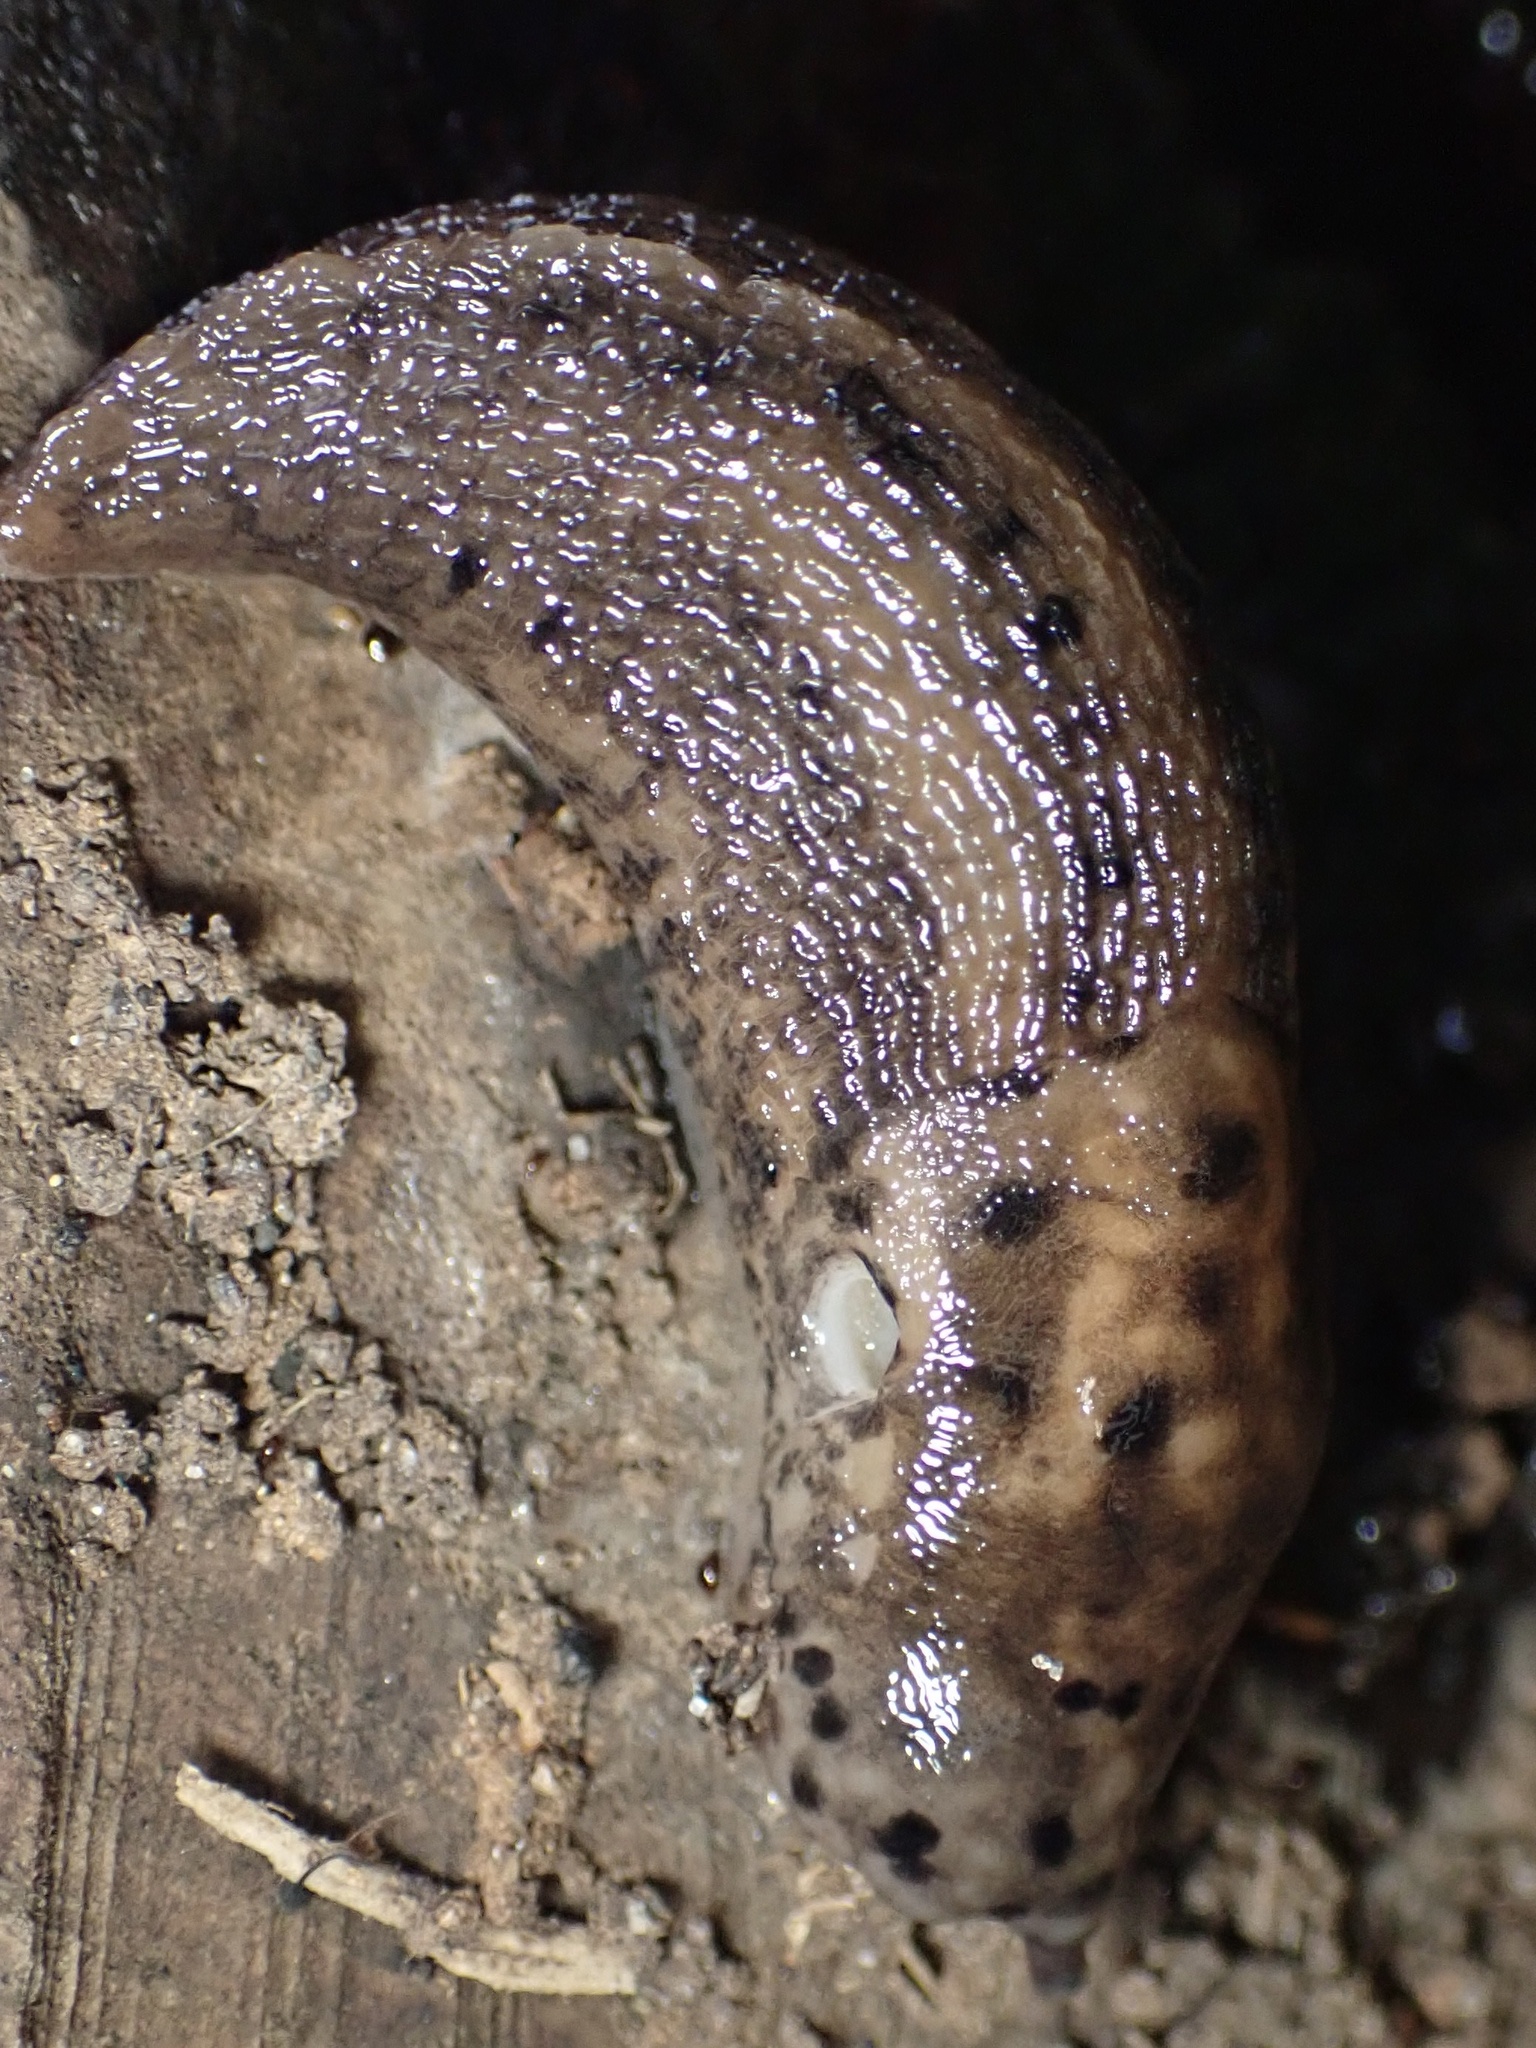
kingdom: Animalia
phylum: Mollusca
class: Gastropoda
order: Stylommatophora
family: Limacidae
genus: Limax
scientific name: Limax maximus
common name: Great grey slug
